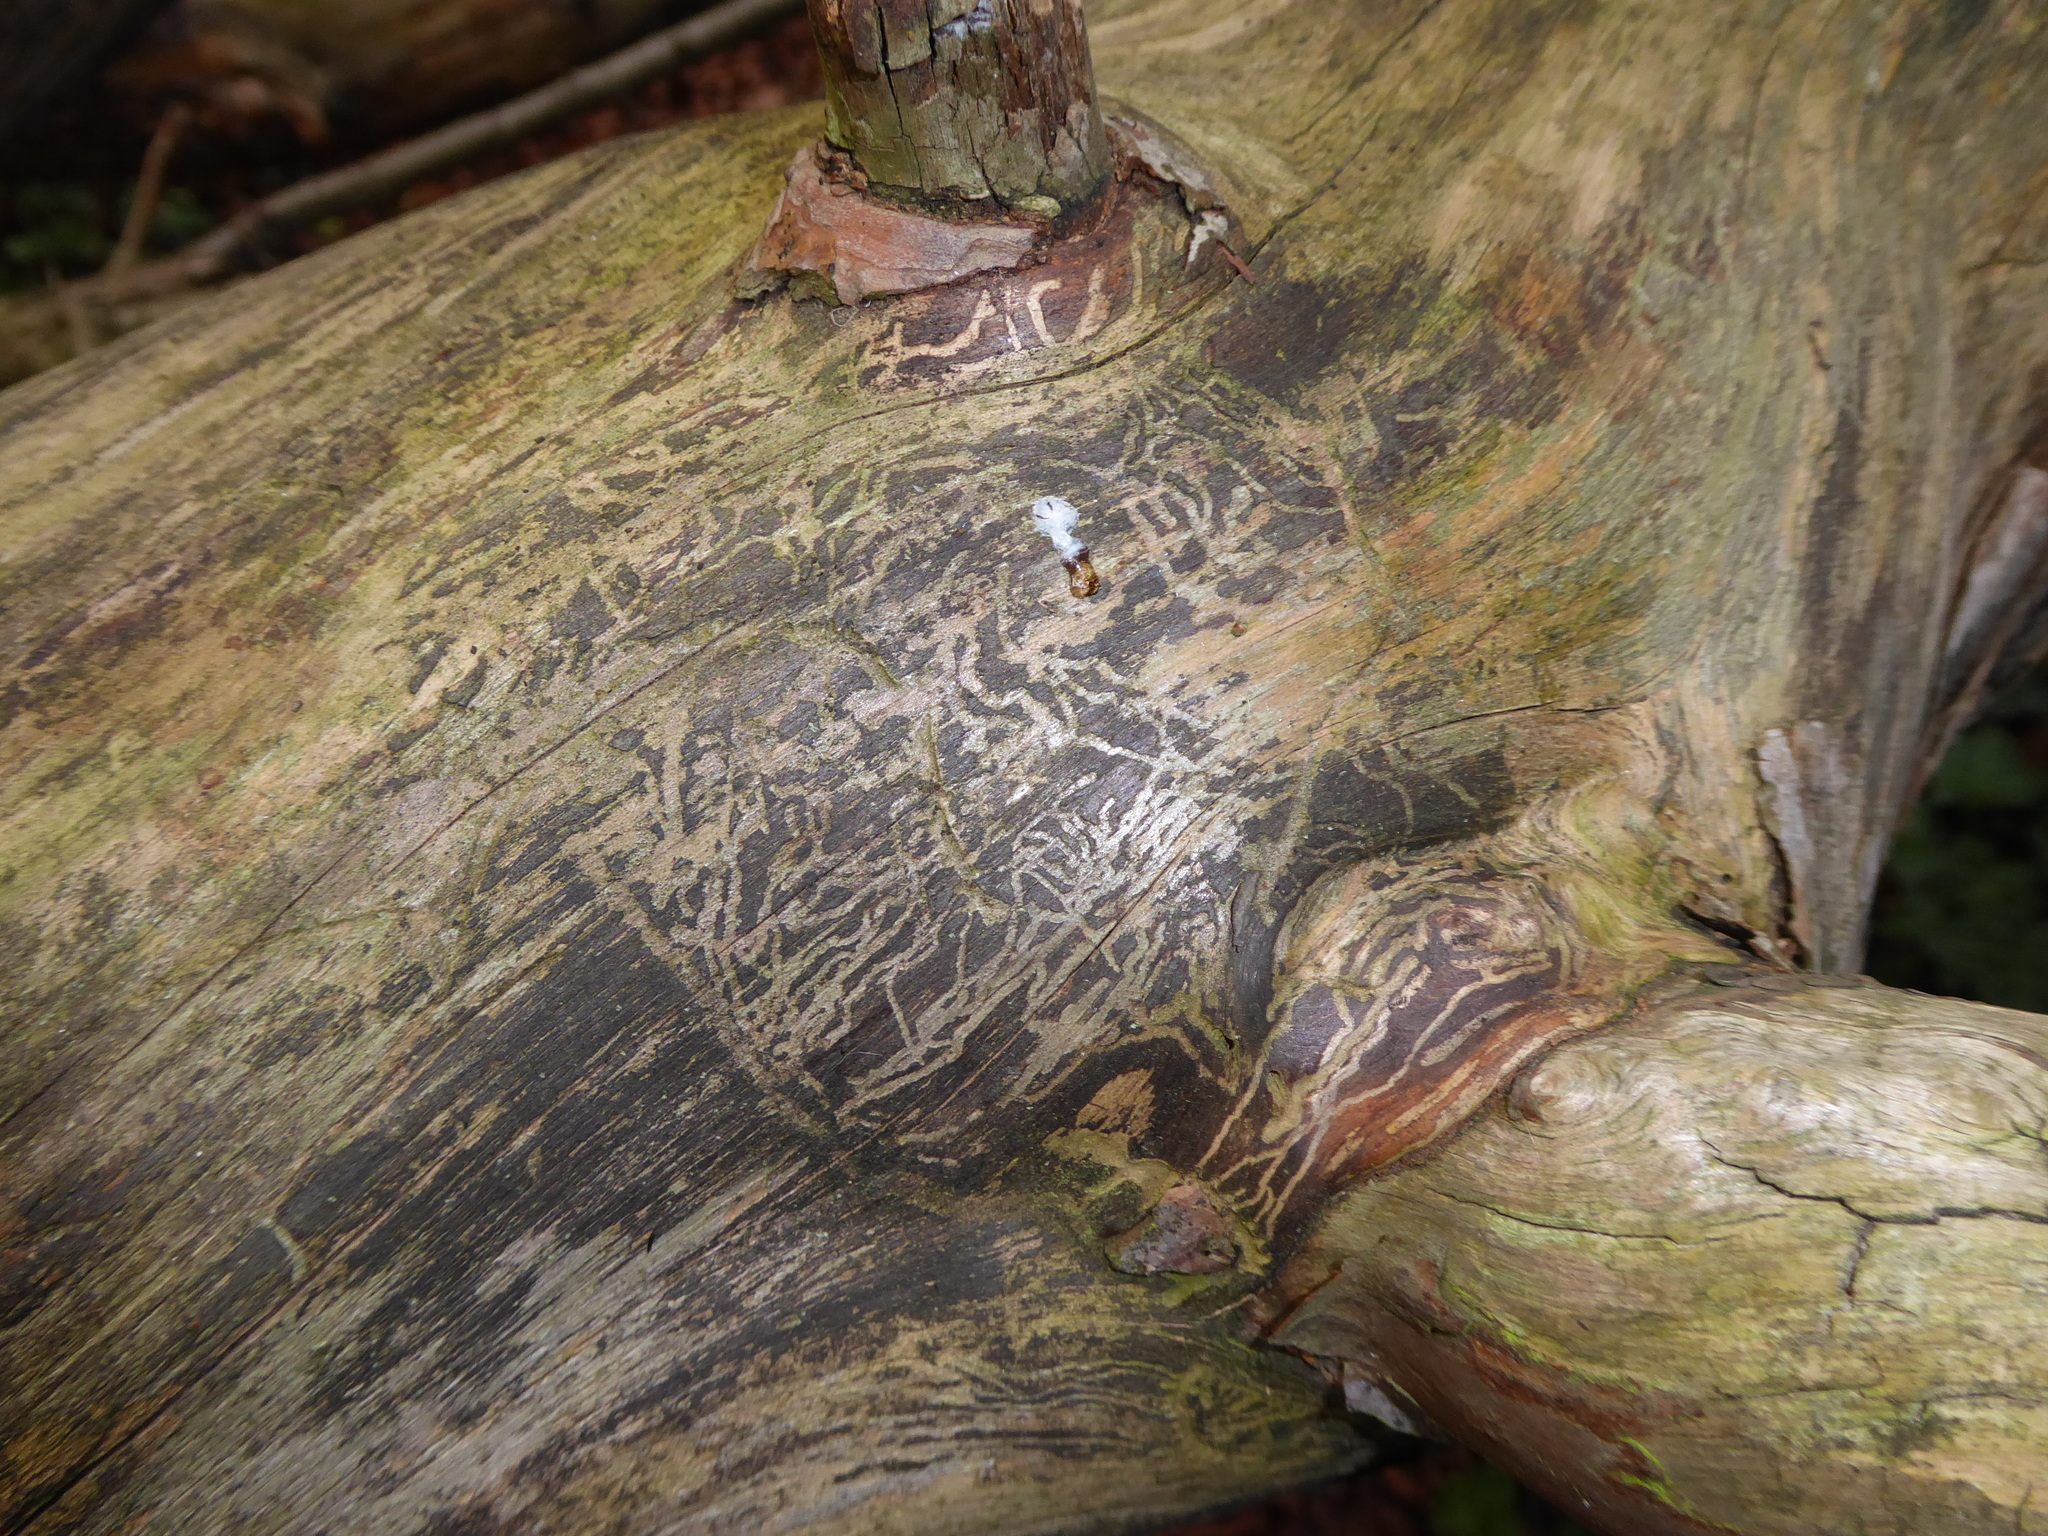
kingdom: Animalia
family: Scolytidae
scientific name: Scolytidae
